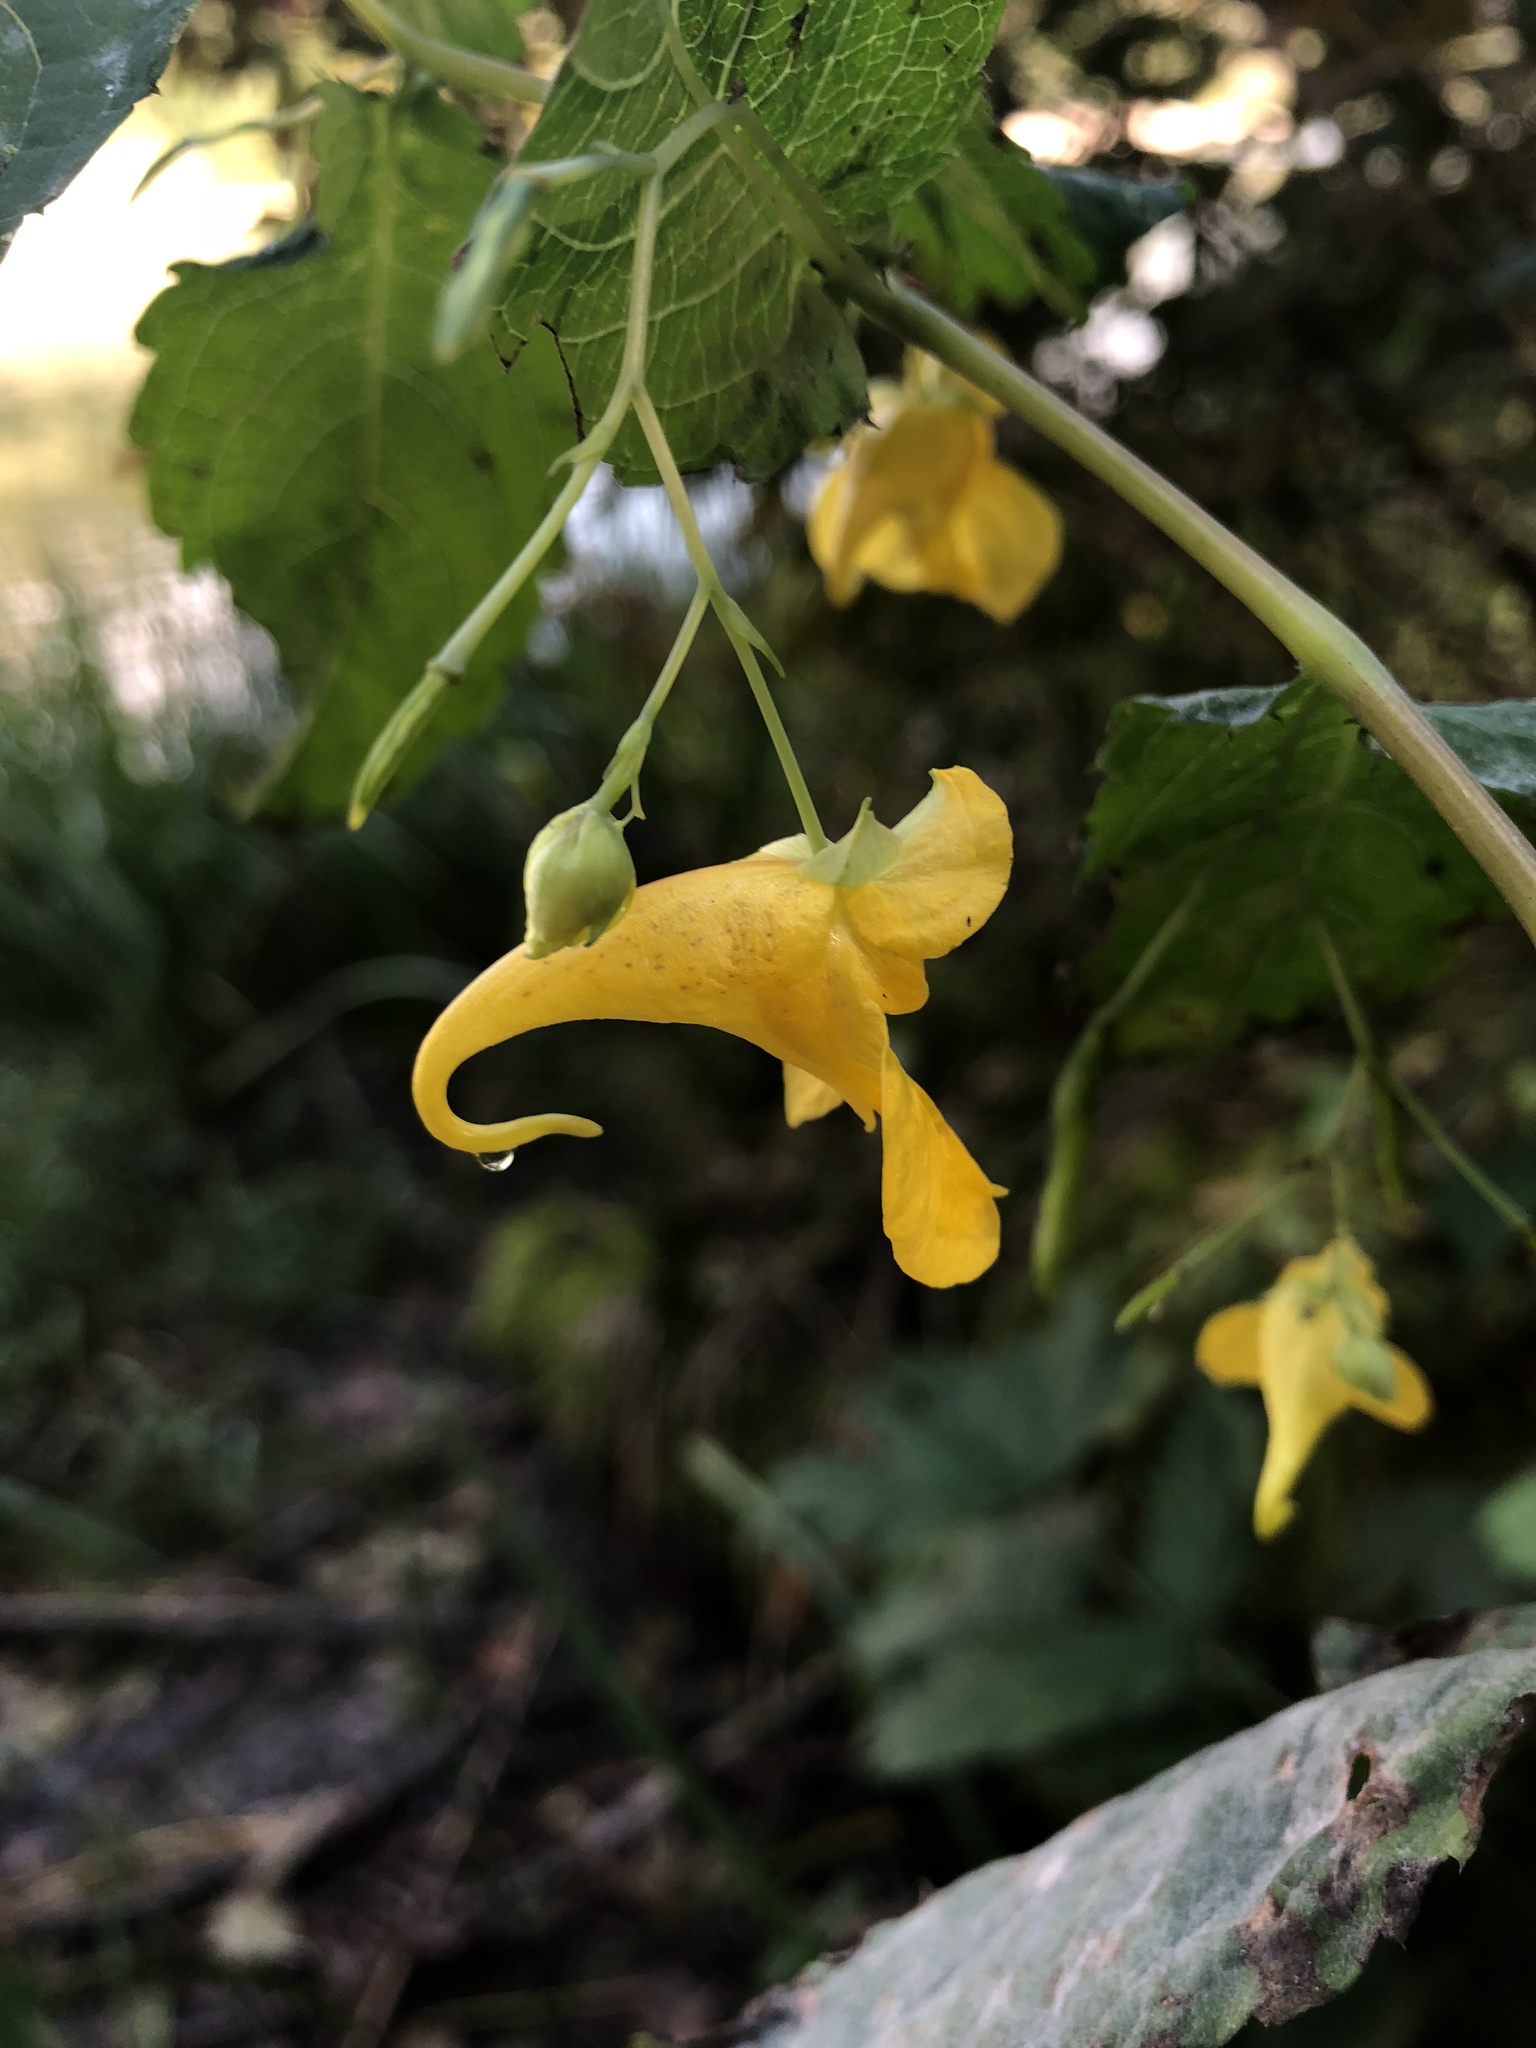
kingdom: Plantae
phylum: Tracheophyta
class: Magnoliopsida
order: Ericales
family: Balsaminaceae
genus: Impatiens
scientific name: Impatiens noli-tangere
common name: Touch-me-not balsam
